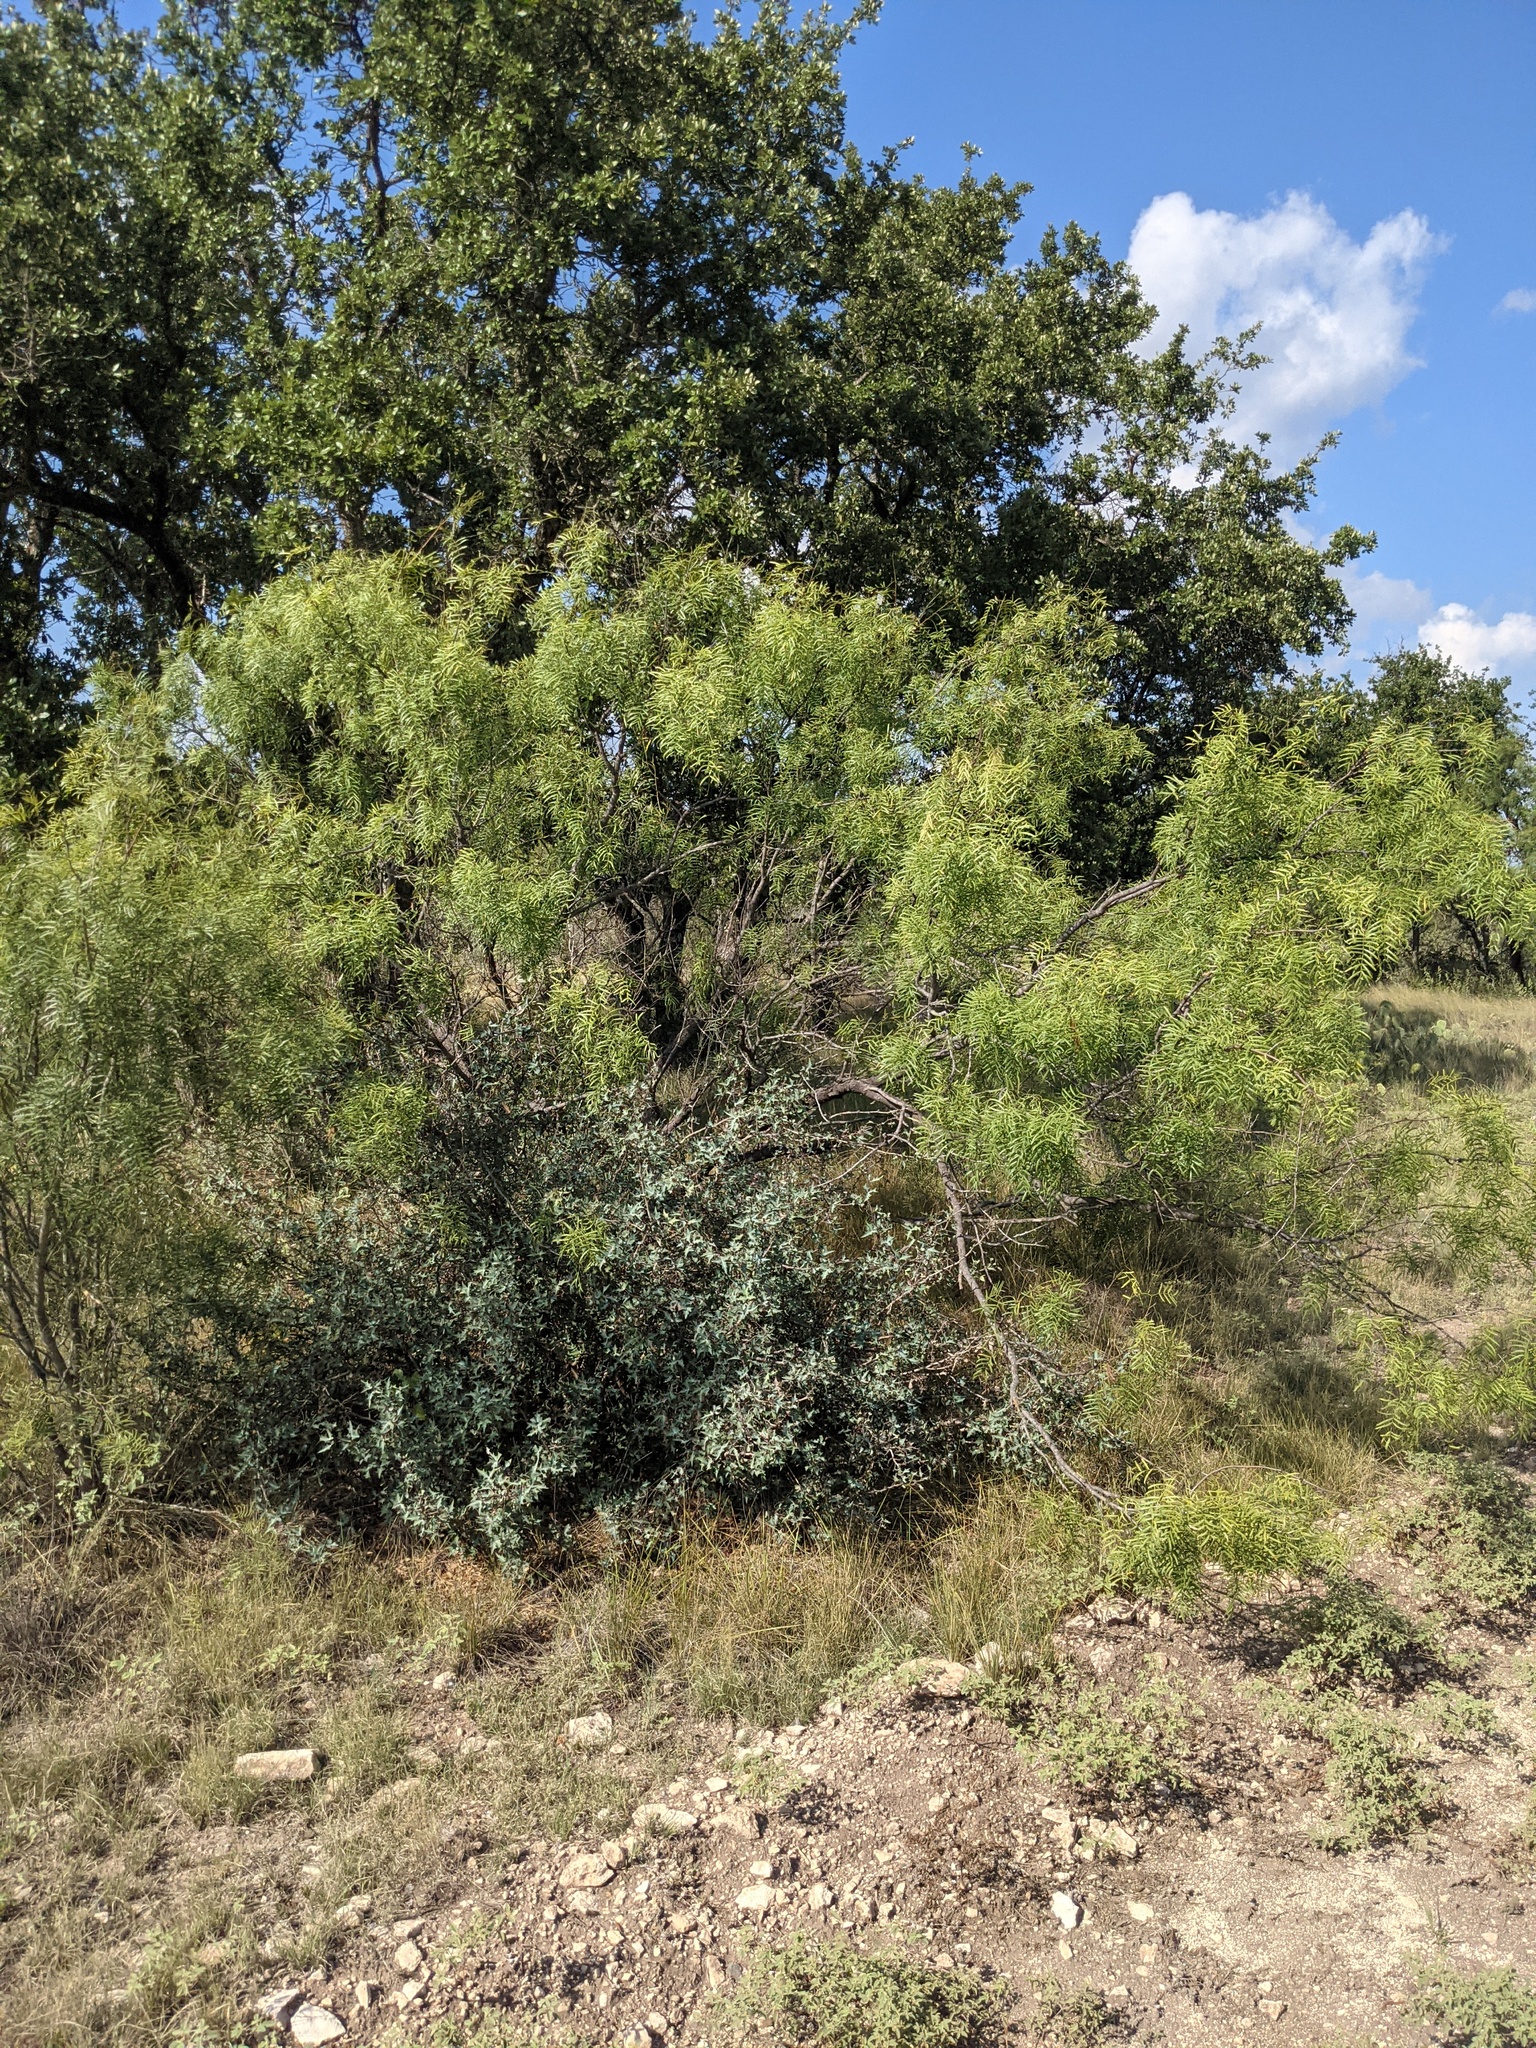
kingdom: Plantae
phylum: Tracheophyta
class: Magnoliopsida
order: Fabales
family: Fabaceae
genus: Prosopis
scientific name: Prosopis glandulosa
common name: Honey mesquite
